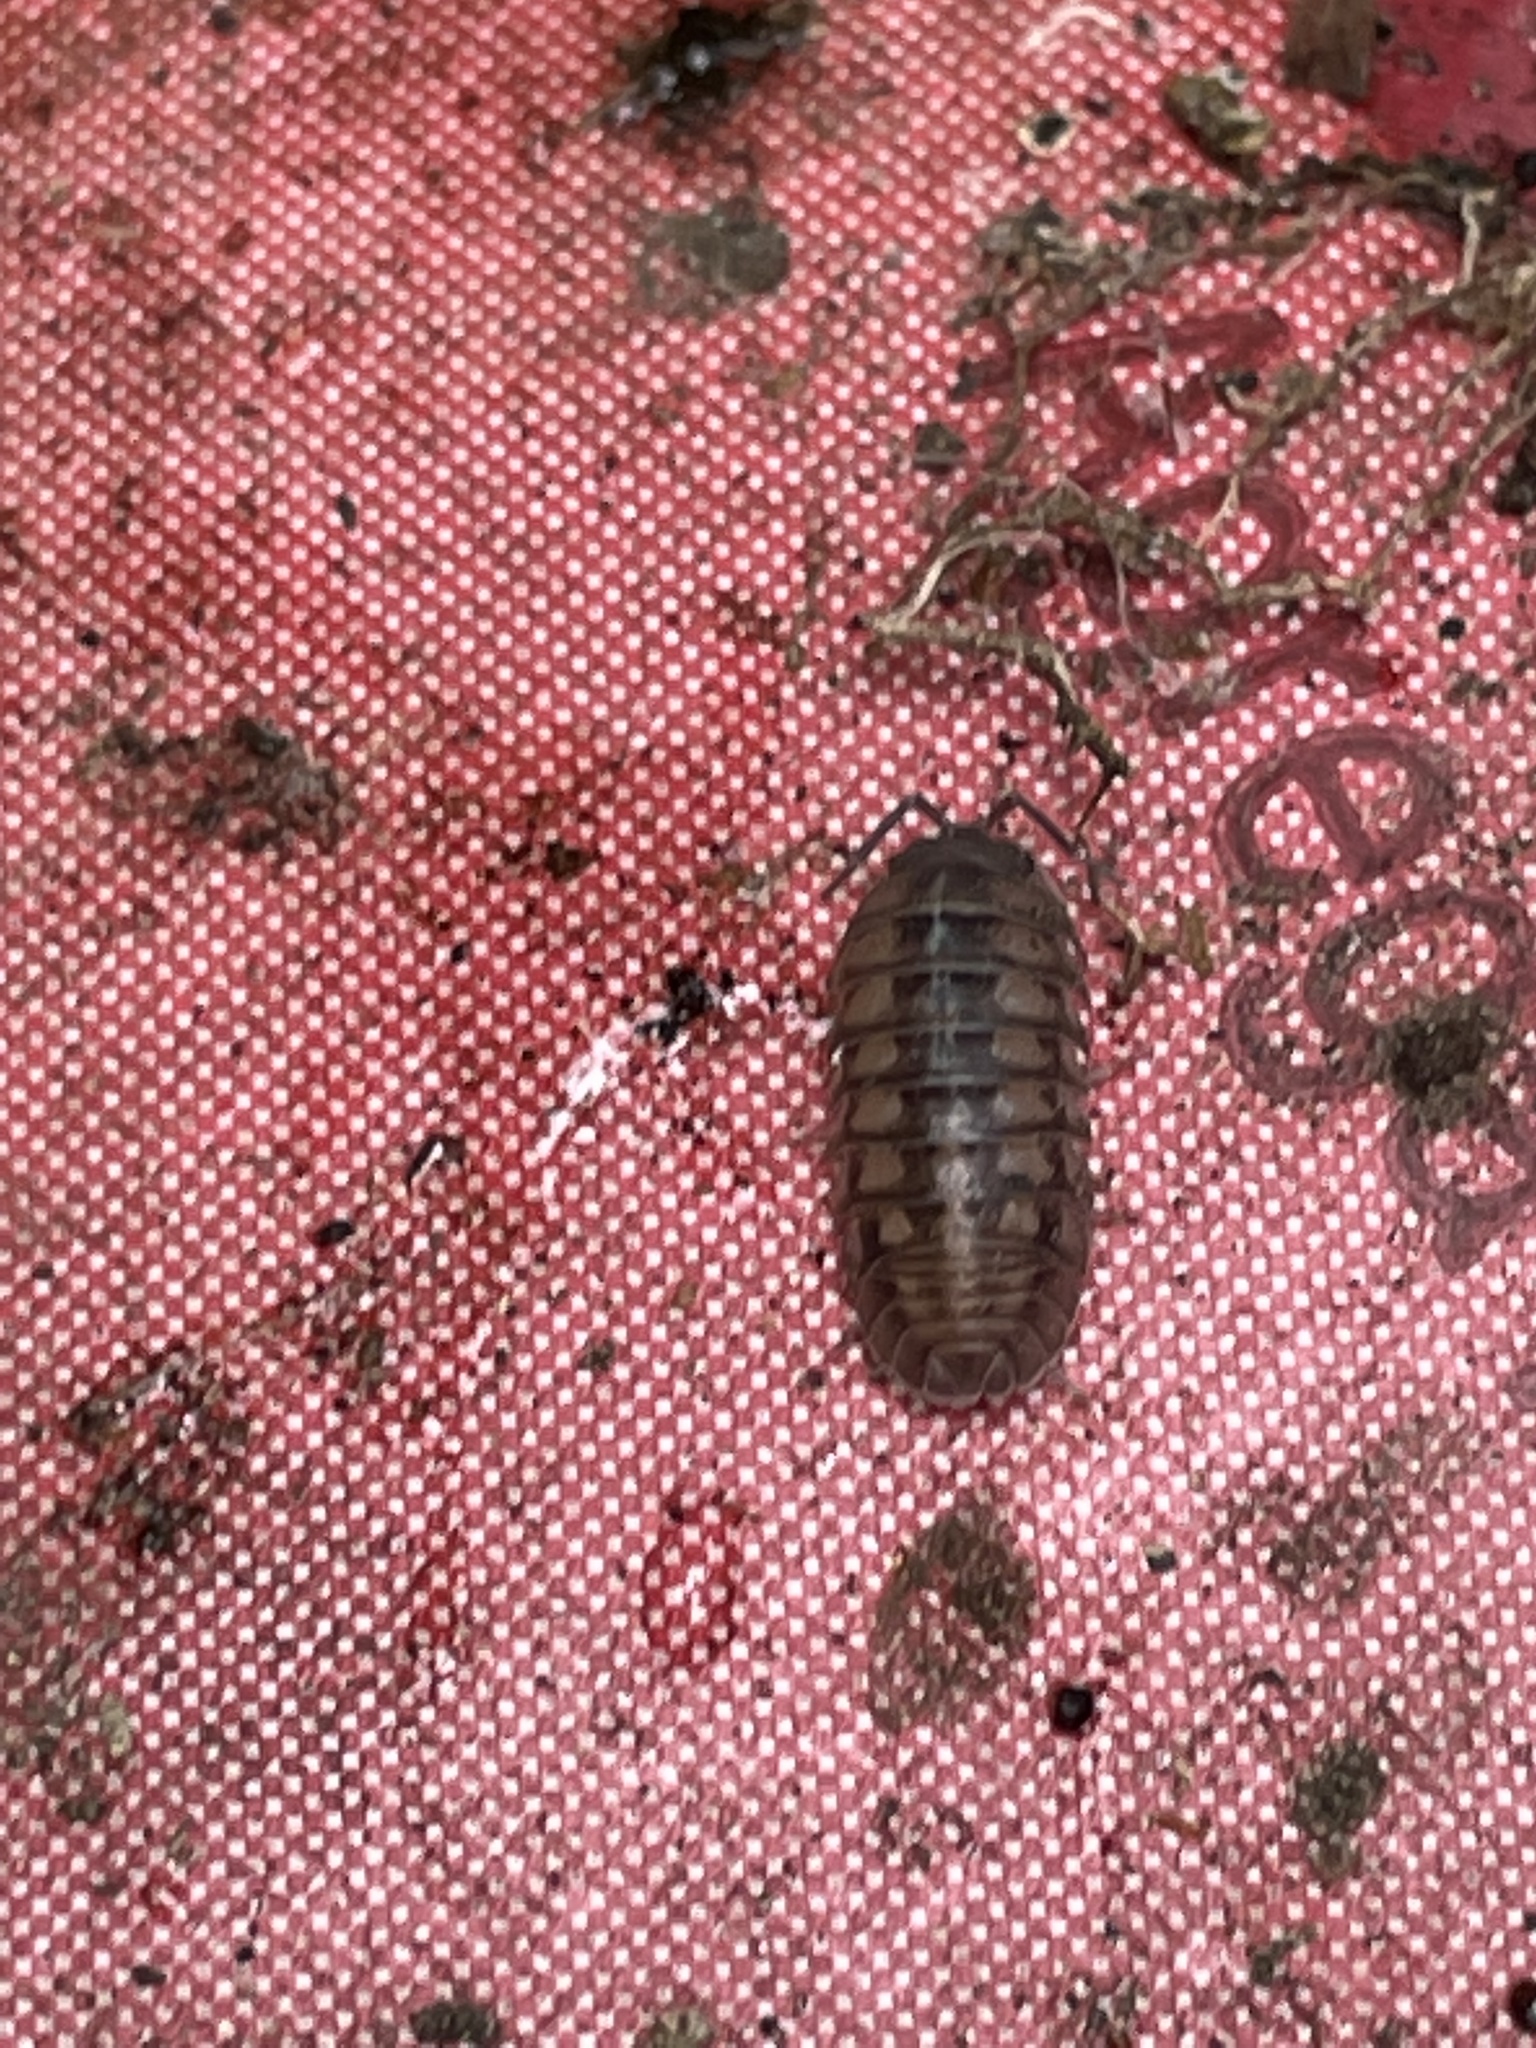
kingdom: Animalia
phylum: Arthropoda
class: Malacostraca
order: Isopoda
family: Armadillidiidae
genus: Armadillidium
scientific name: Armadillidium nasatum
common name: Isopod
